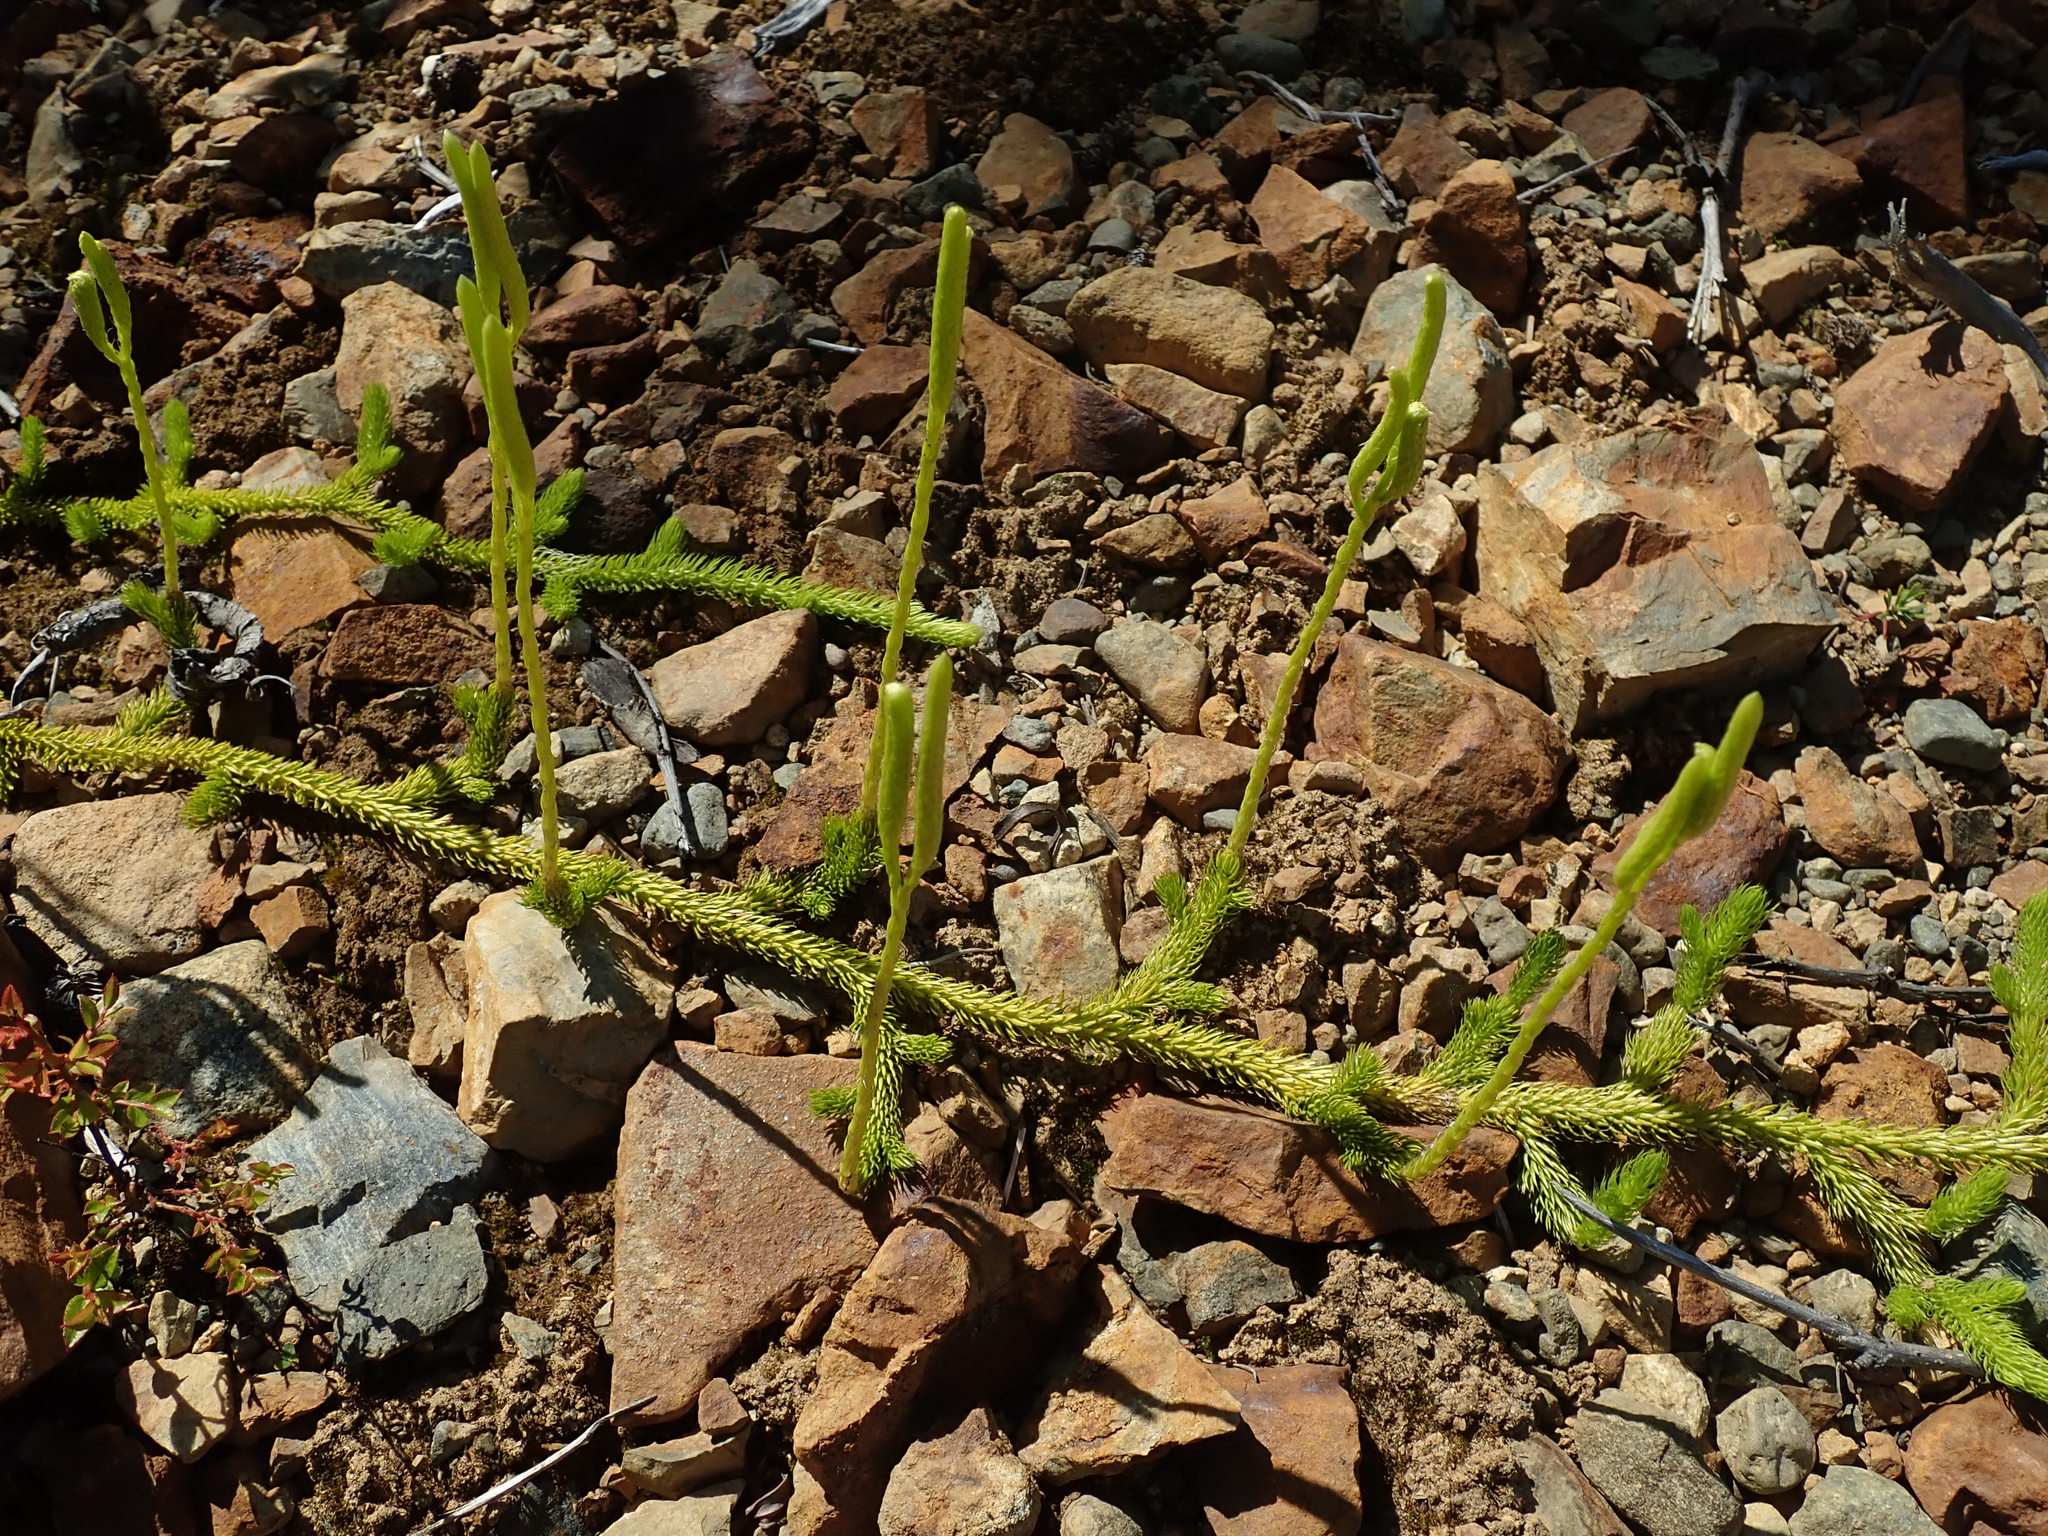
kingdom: Plantae
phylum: Tracheophyta
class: Lycopodiopsida
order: Lycopodiales
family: Lycopodiaceae
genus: Lycopodium
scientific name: Lycopodium clavatum
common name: Stag's-horn clubmoss
